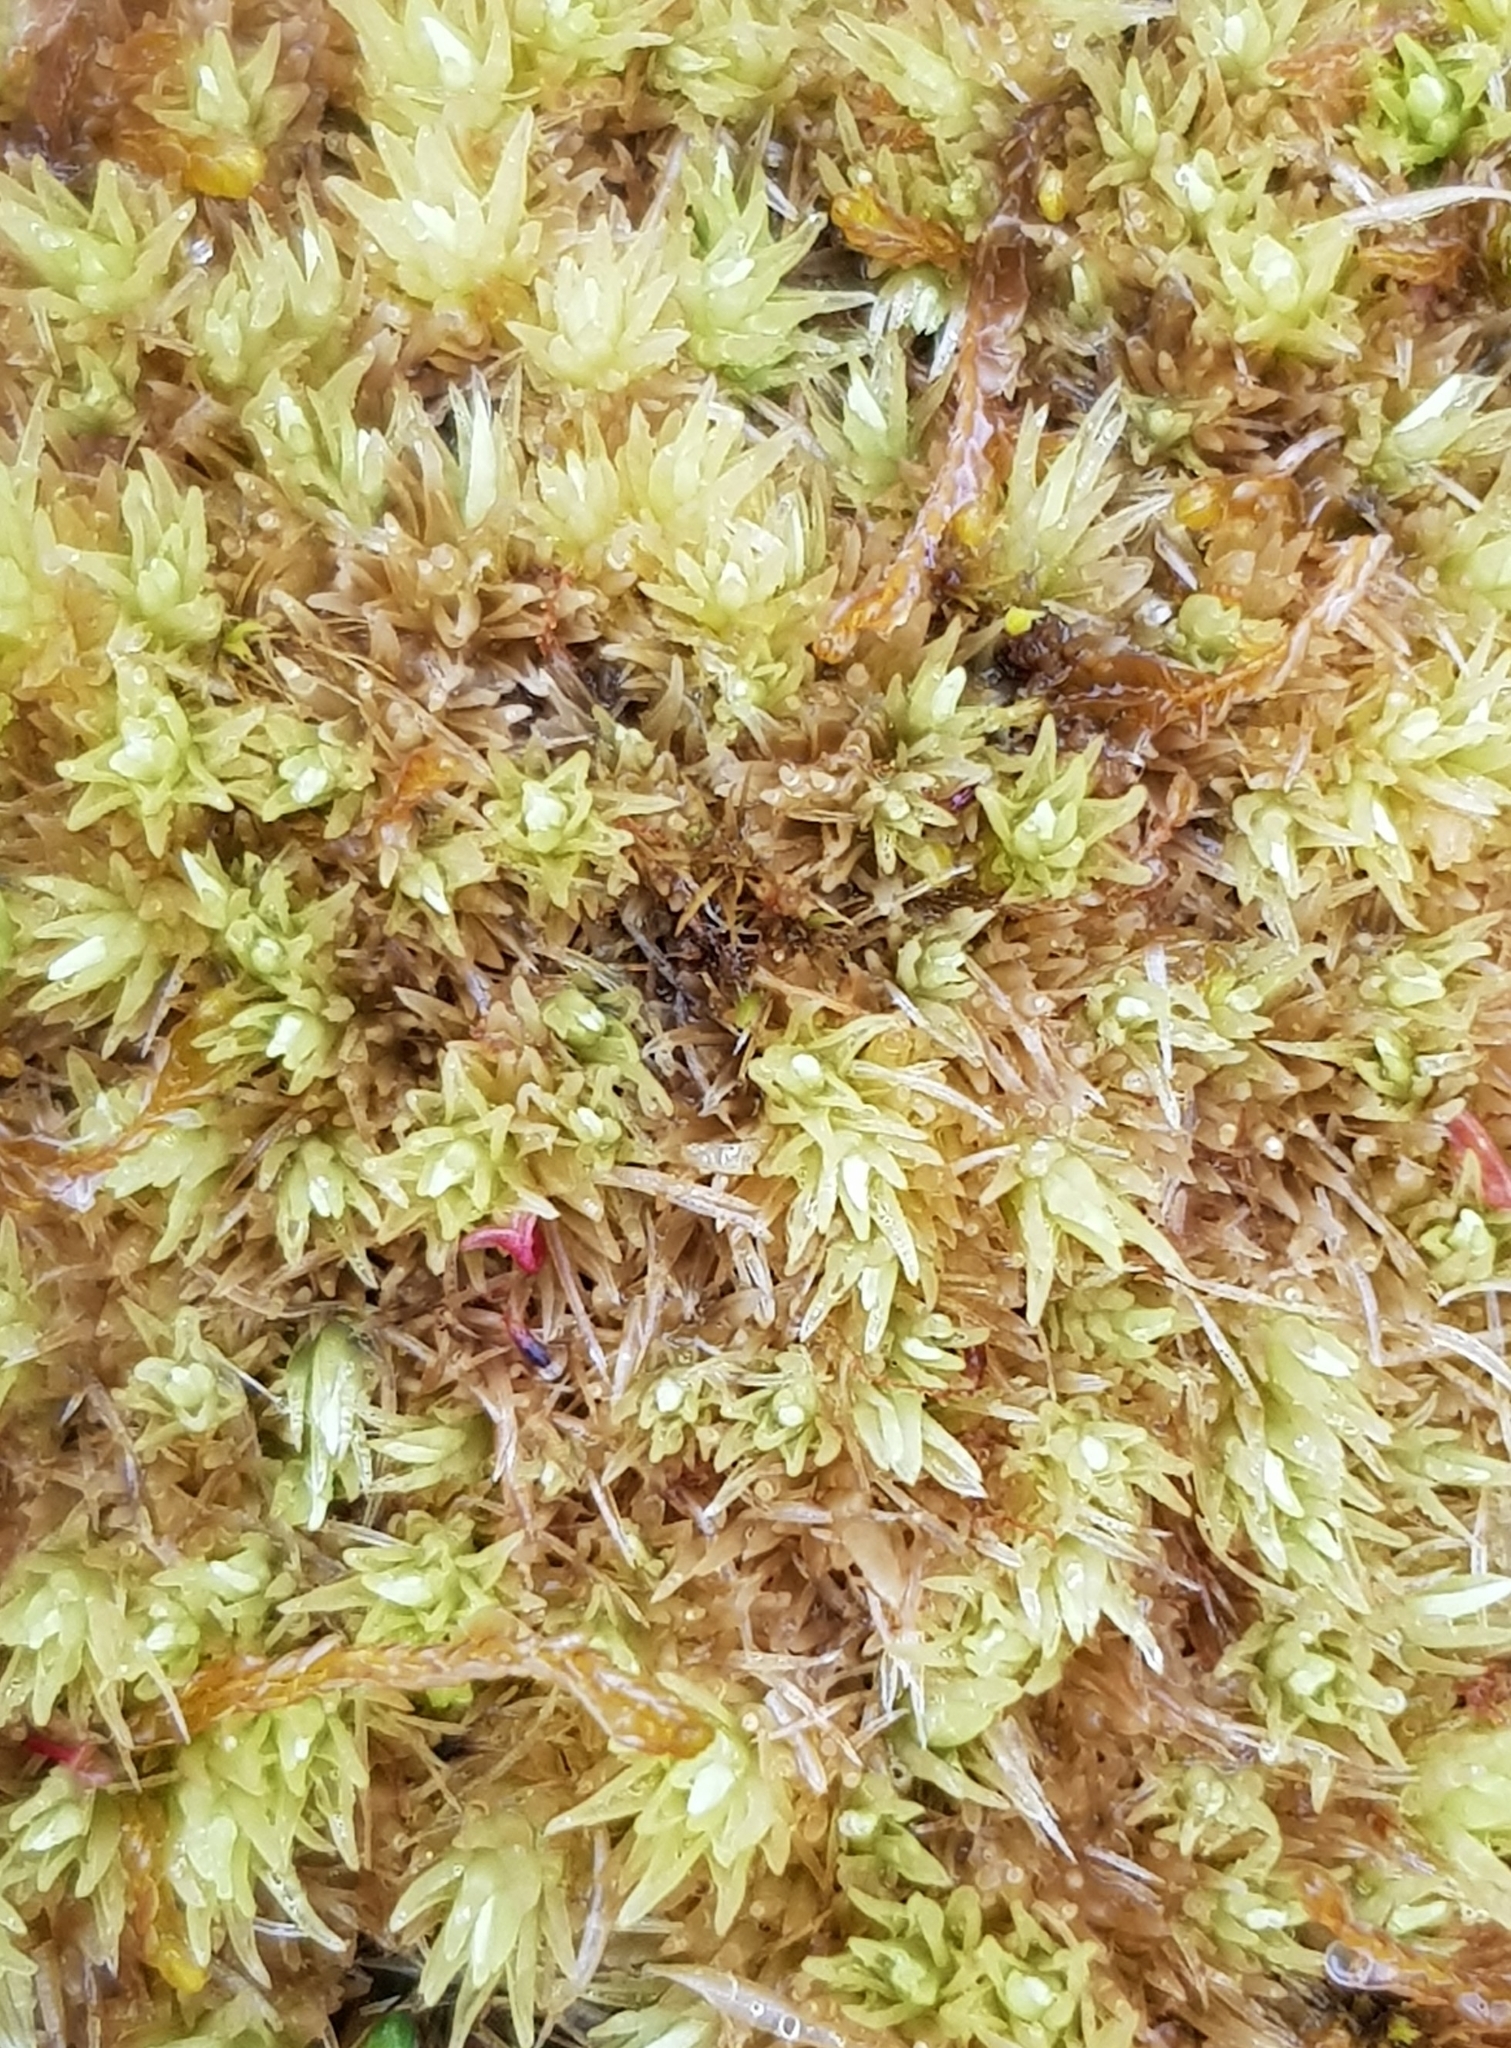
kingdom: Plantae
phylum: Bryophyta
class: Bryopsida
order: Dicranales
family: Leucobryaceae
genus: Leucobryum
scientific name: Leucobryum glaucum
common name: Large white-moss
